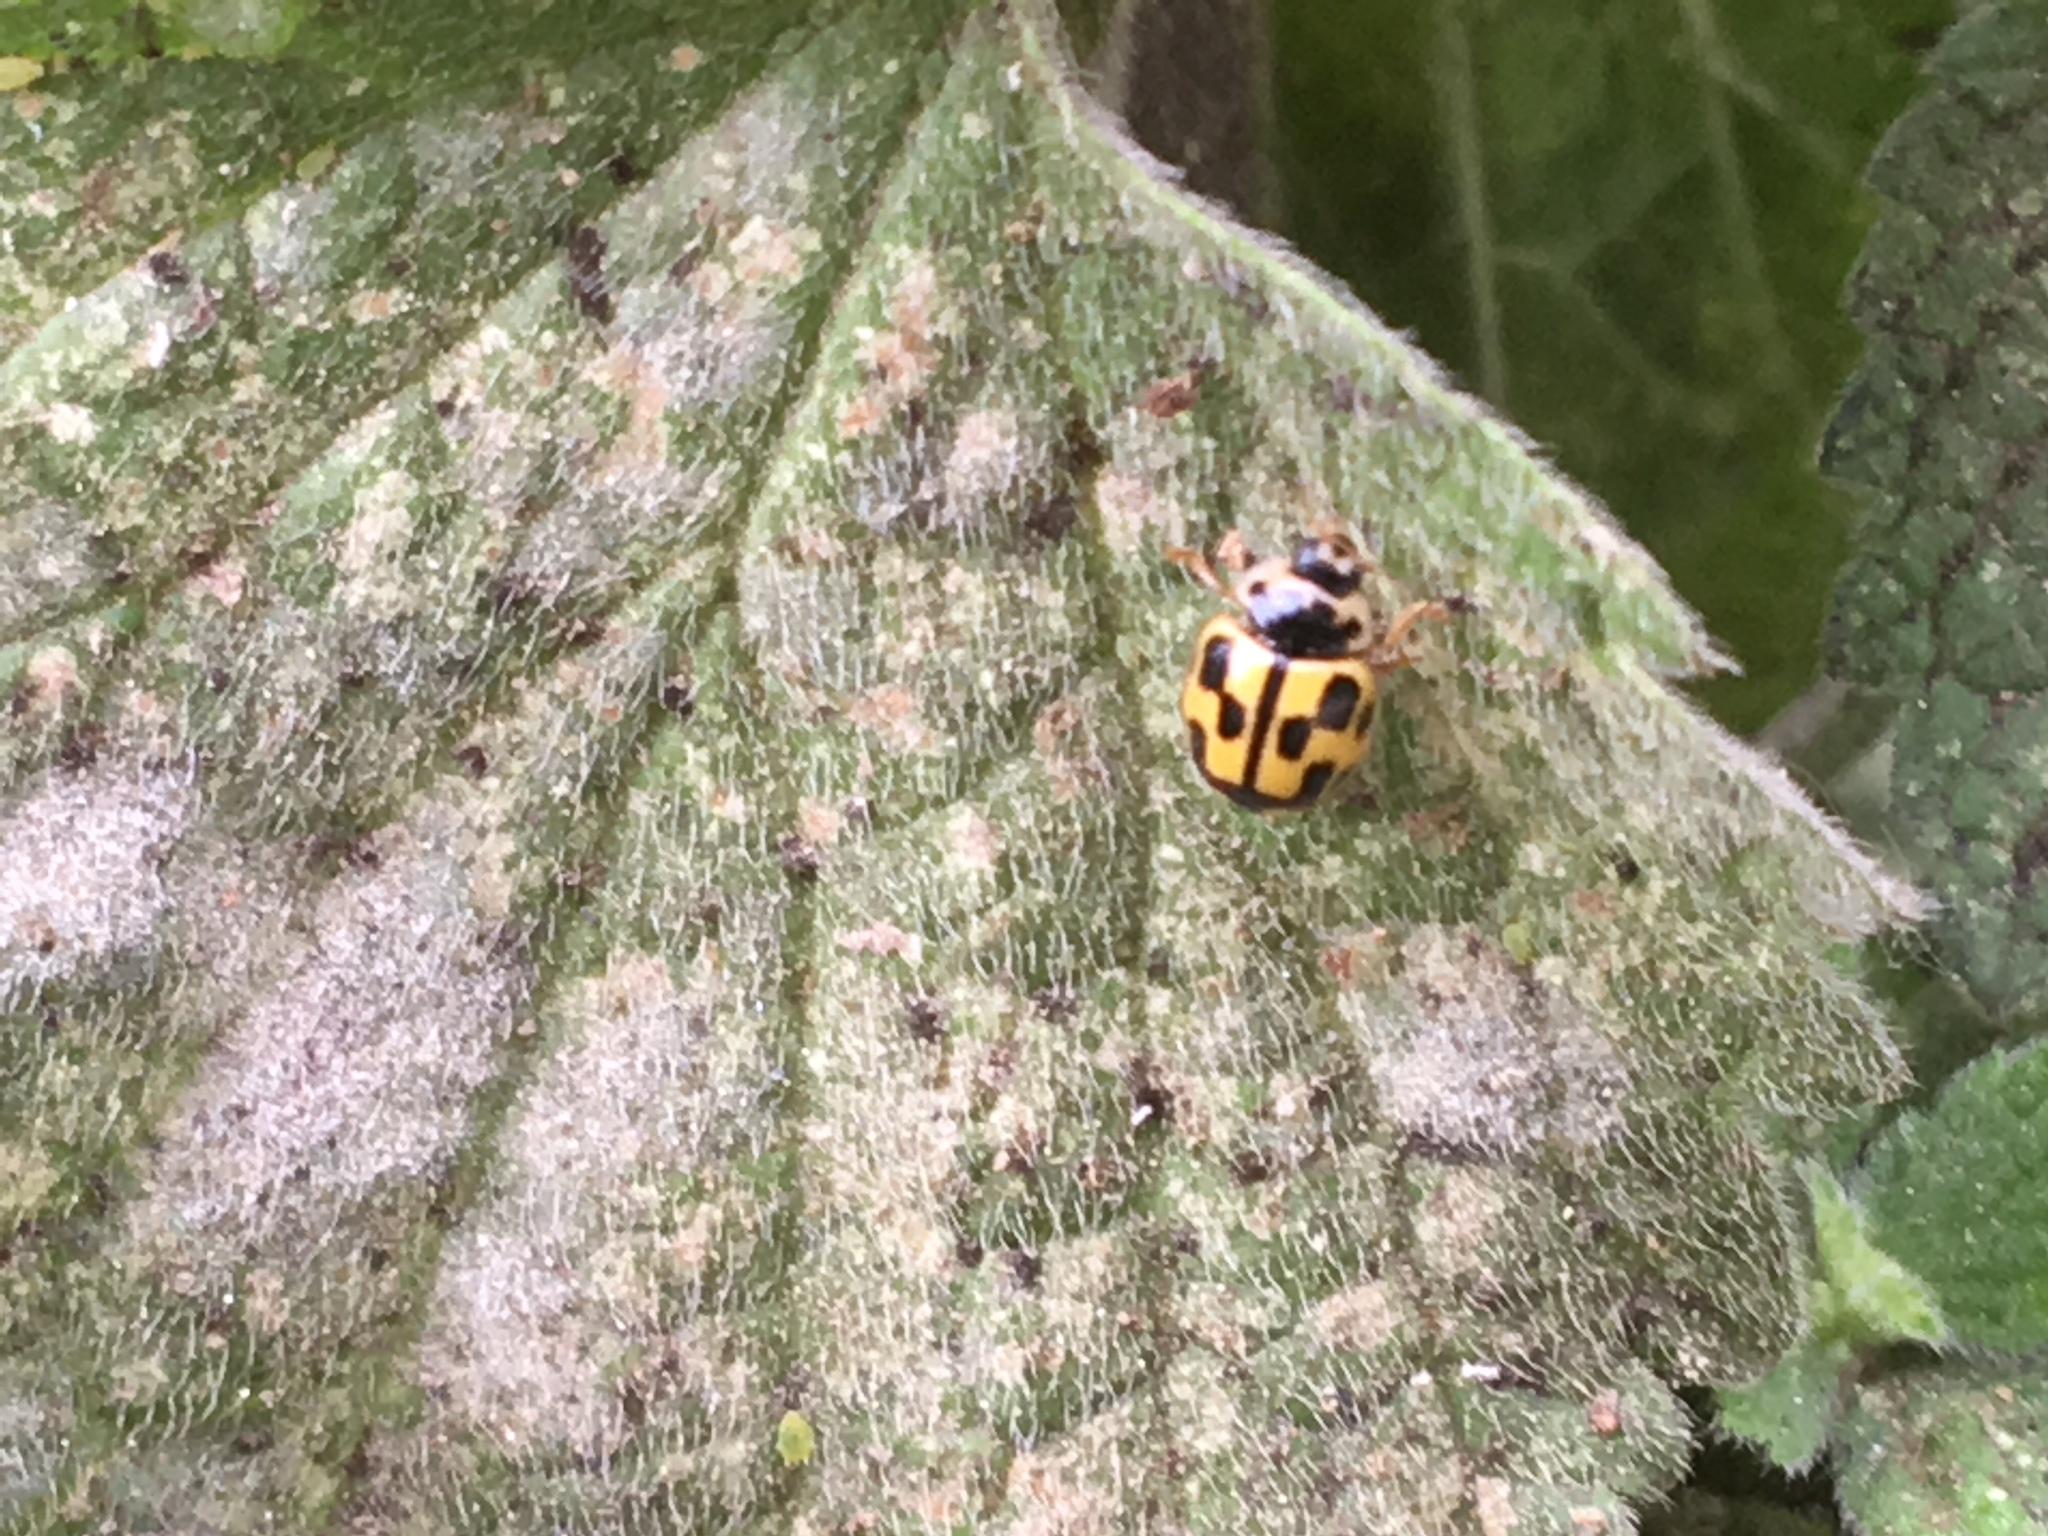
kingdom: Animalia
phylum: Arthropoda
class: Insecta
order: Coleoptera
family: Coccinellidae
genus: Propylaea
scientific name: Propylaea quatuordecimpunctata
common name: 14-spotted ladybird beetle
